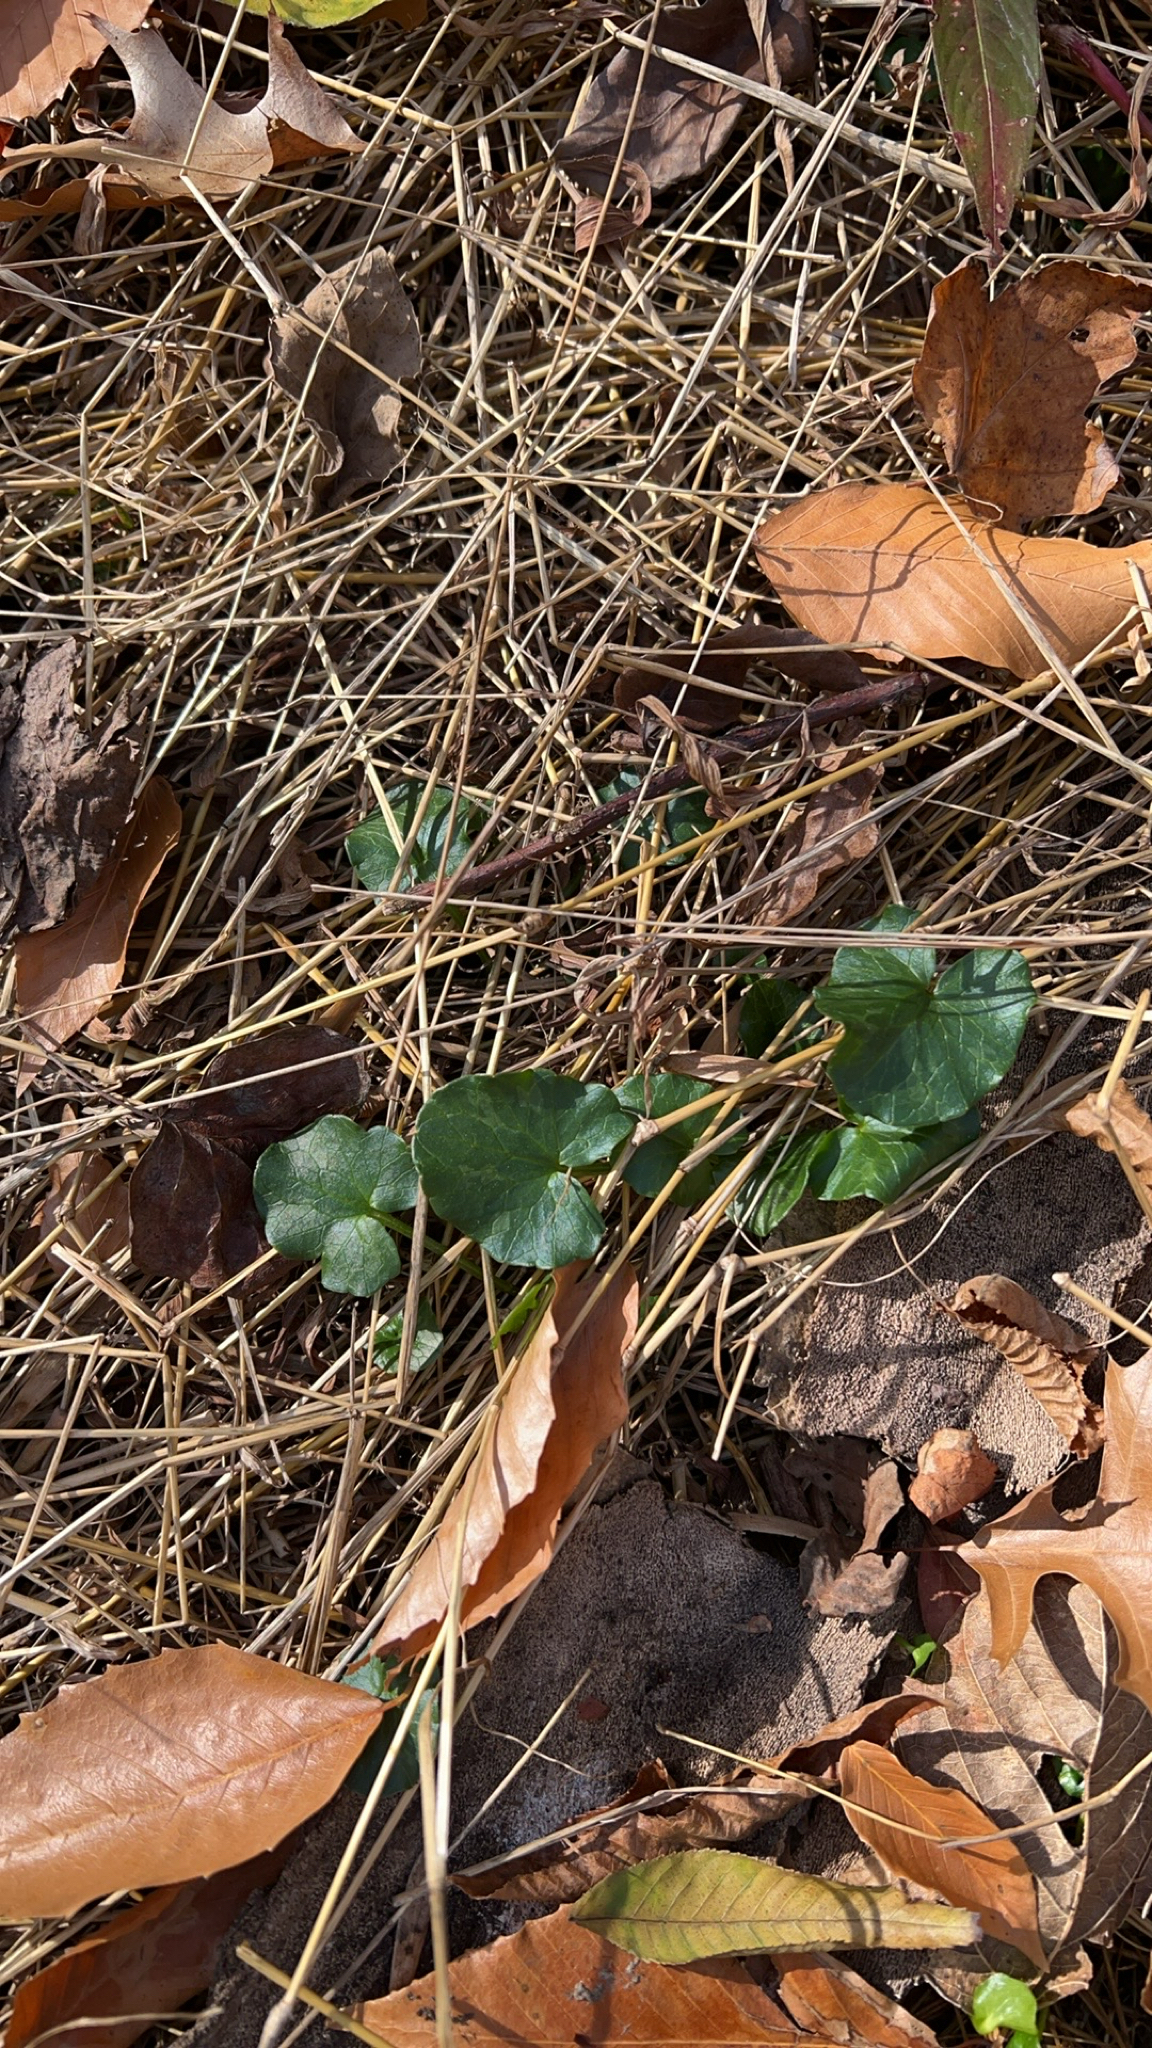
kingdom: Plantae
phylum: Tracheophyta
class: Magnoliopsida
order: Ranunculales
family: Ranunculaceae
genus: Ficaria
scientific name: Ficaria verna
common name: Lesser celandine
